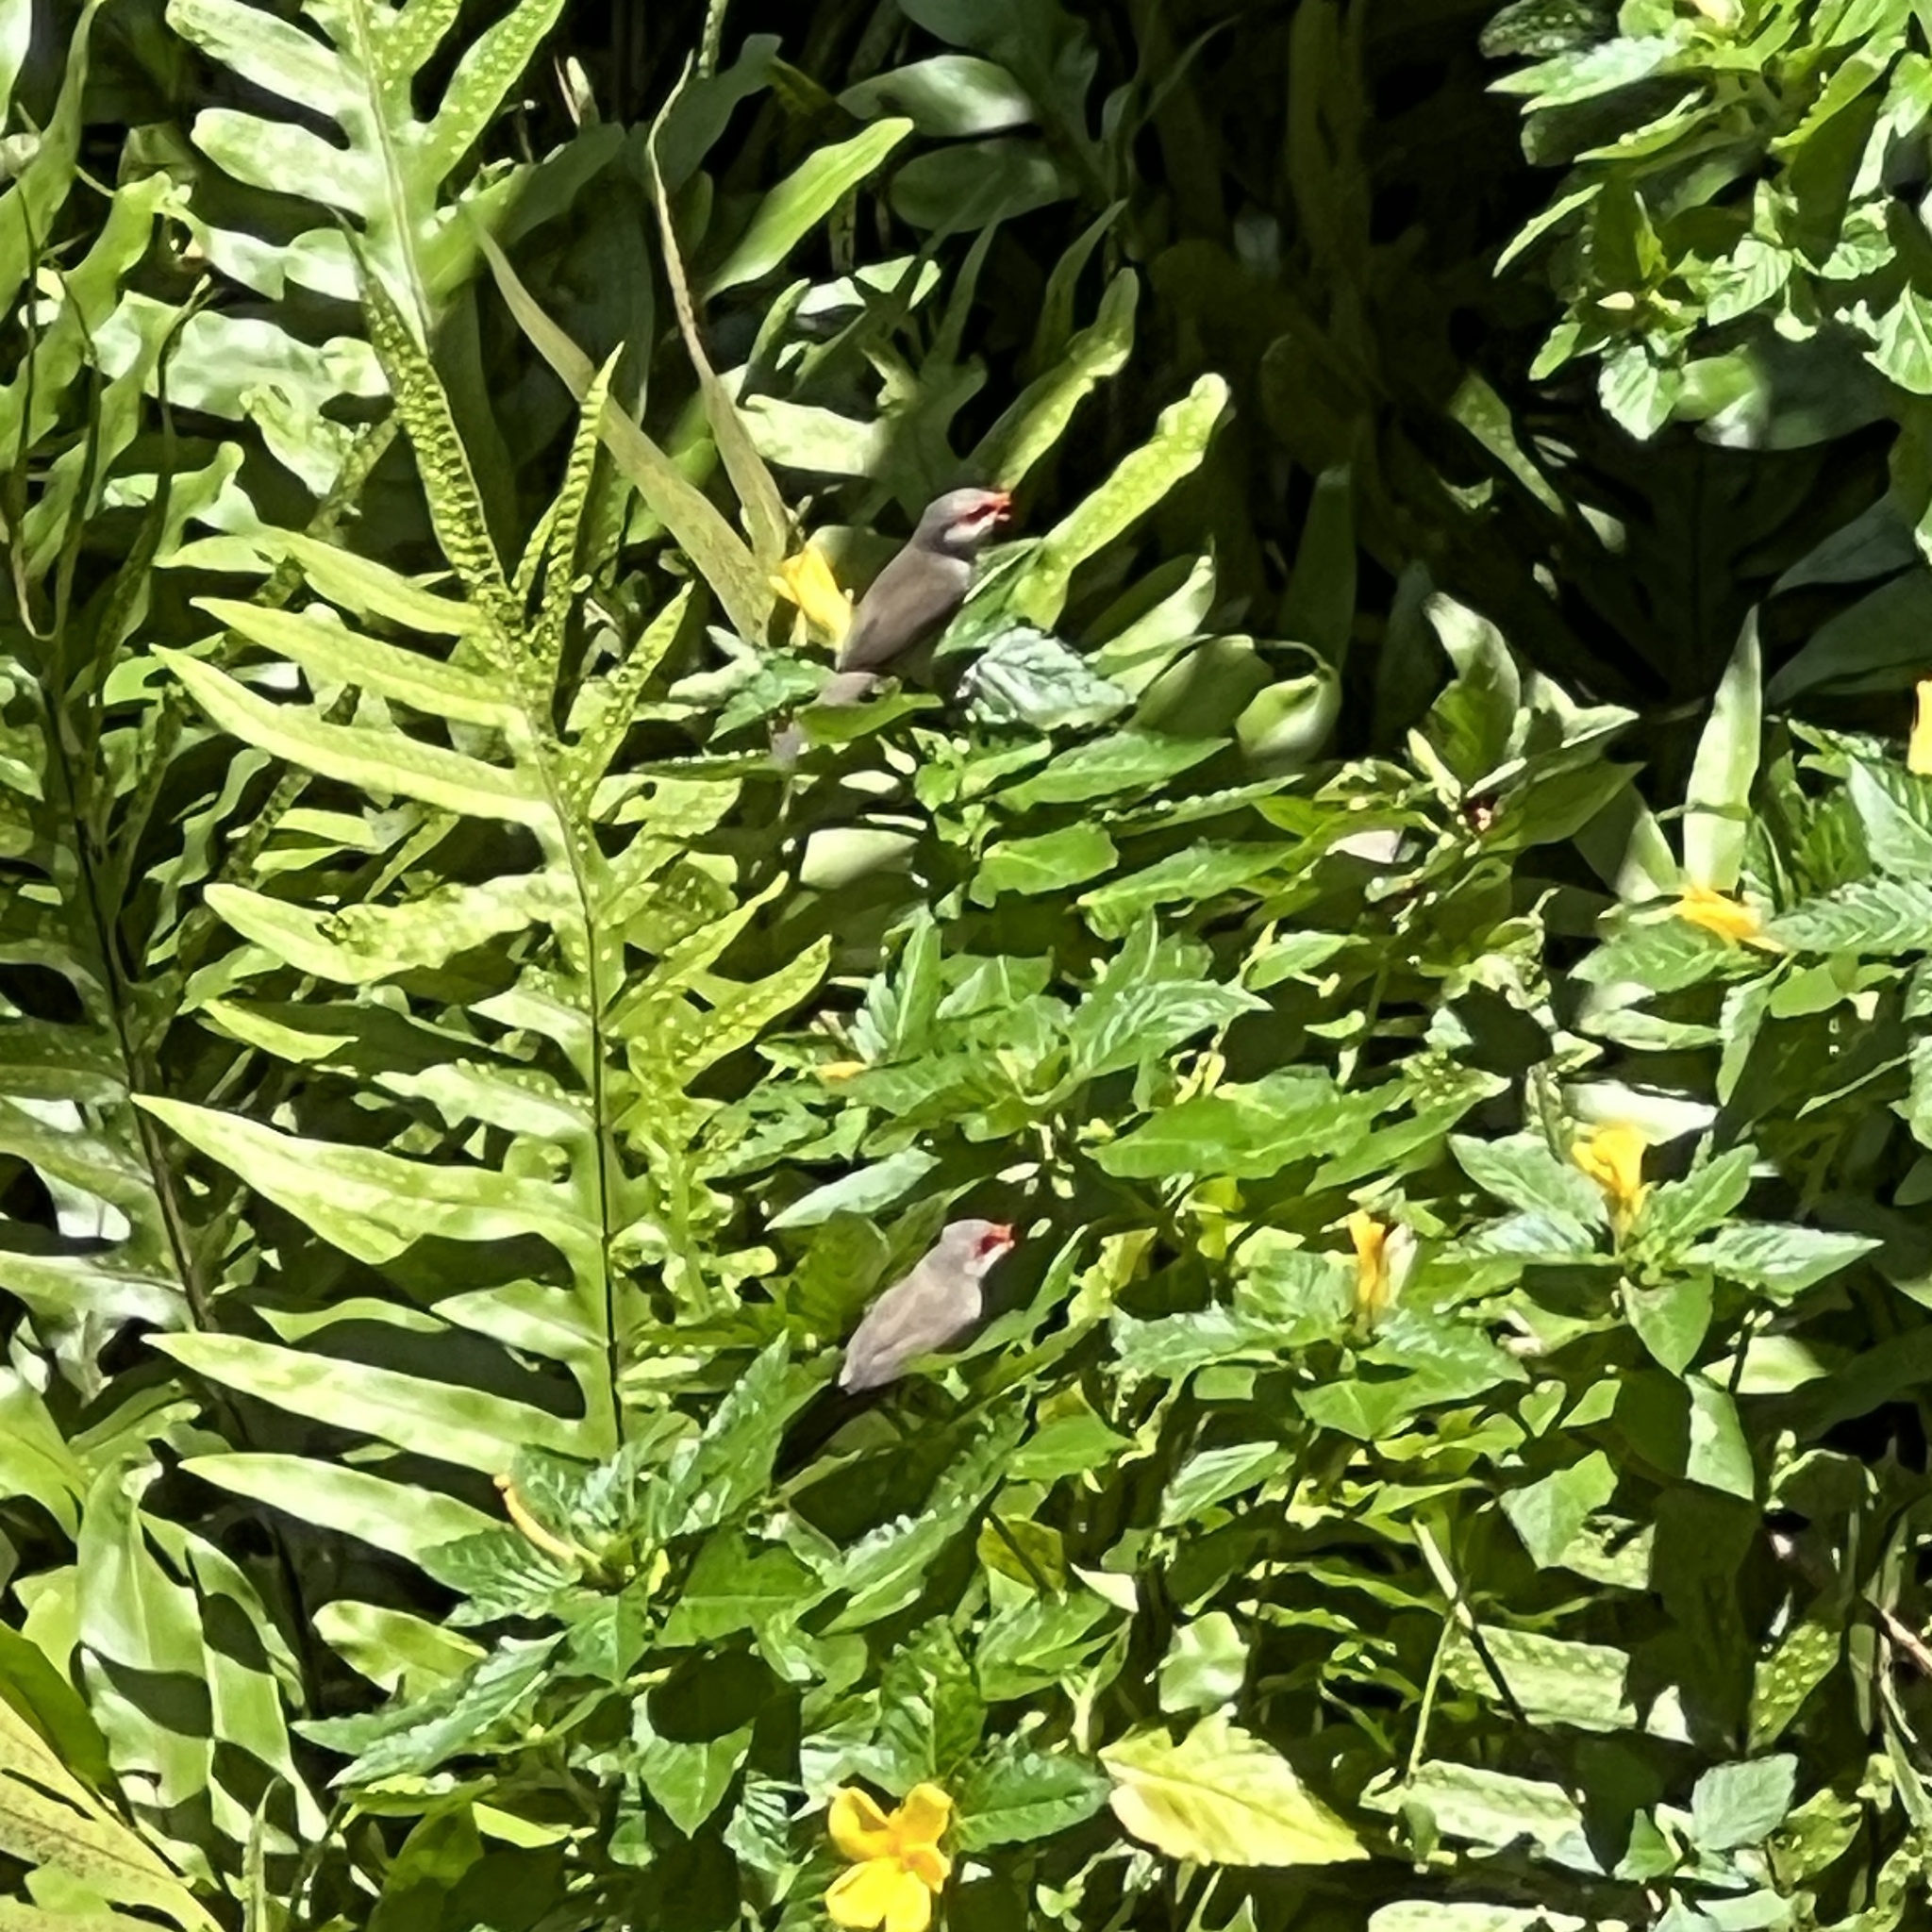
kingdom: Animalia
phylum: Chordata
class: Aves
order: Passeriformes
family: Estrildidae
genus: Estrilda
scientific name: Estrilda astrild
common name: Common waxbill
